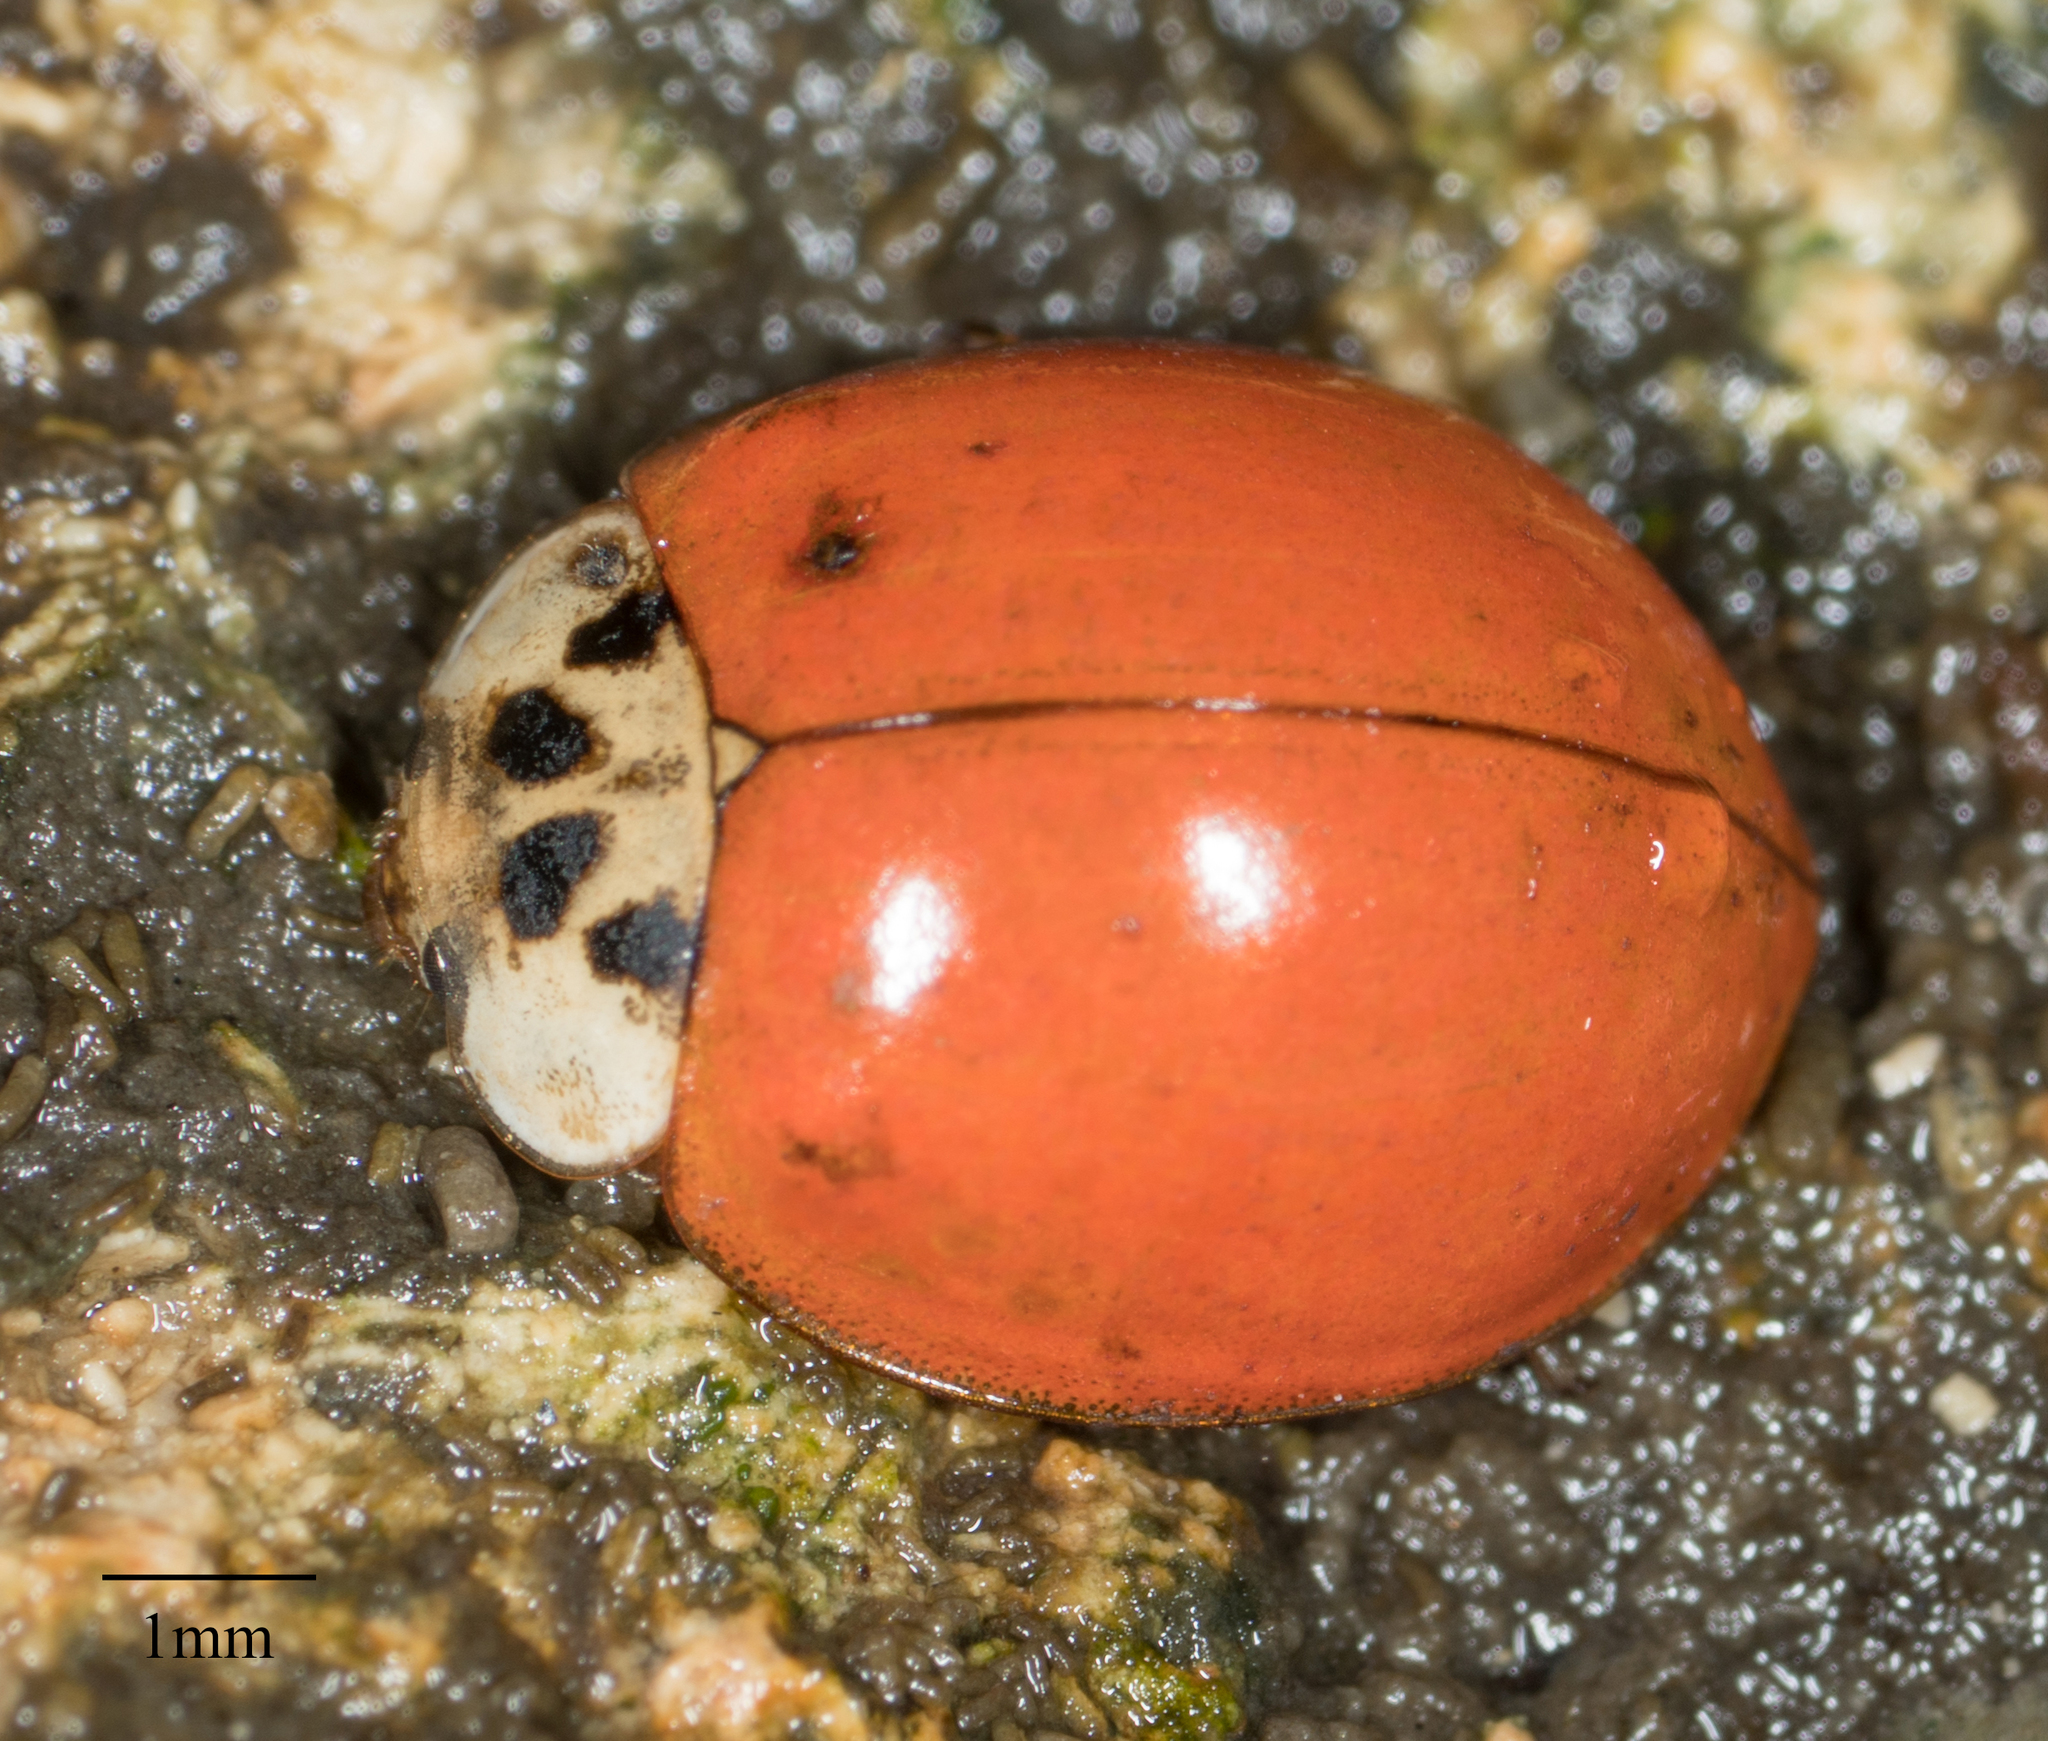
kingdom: Animalia
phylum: Arthropoda
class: Insecta
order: Coleoptera
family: Coccinellidae
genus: Harmonia
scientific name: Harmonia axyridis
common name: Harlequin ladybird
